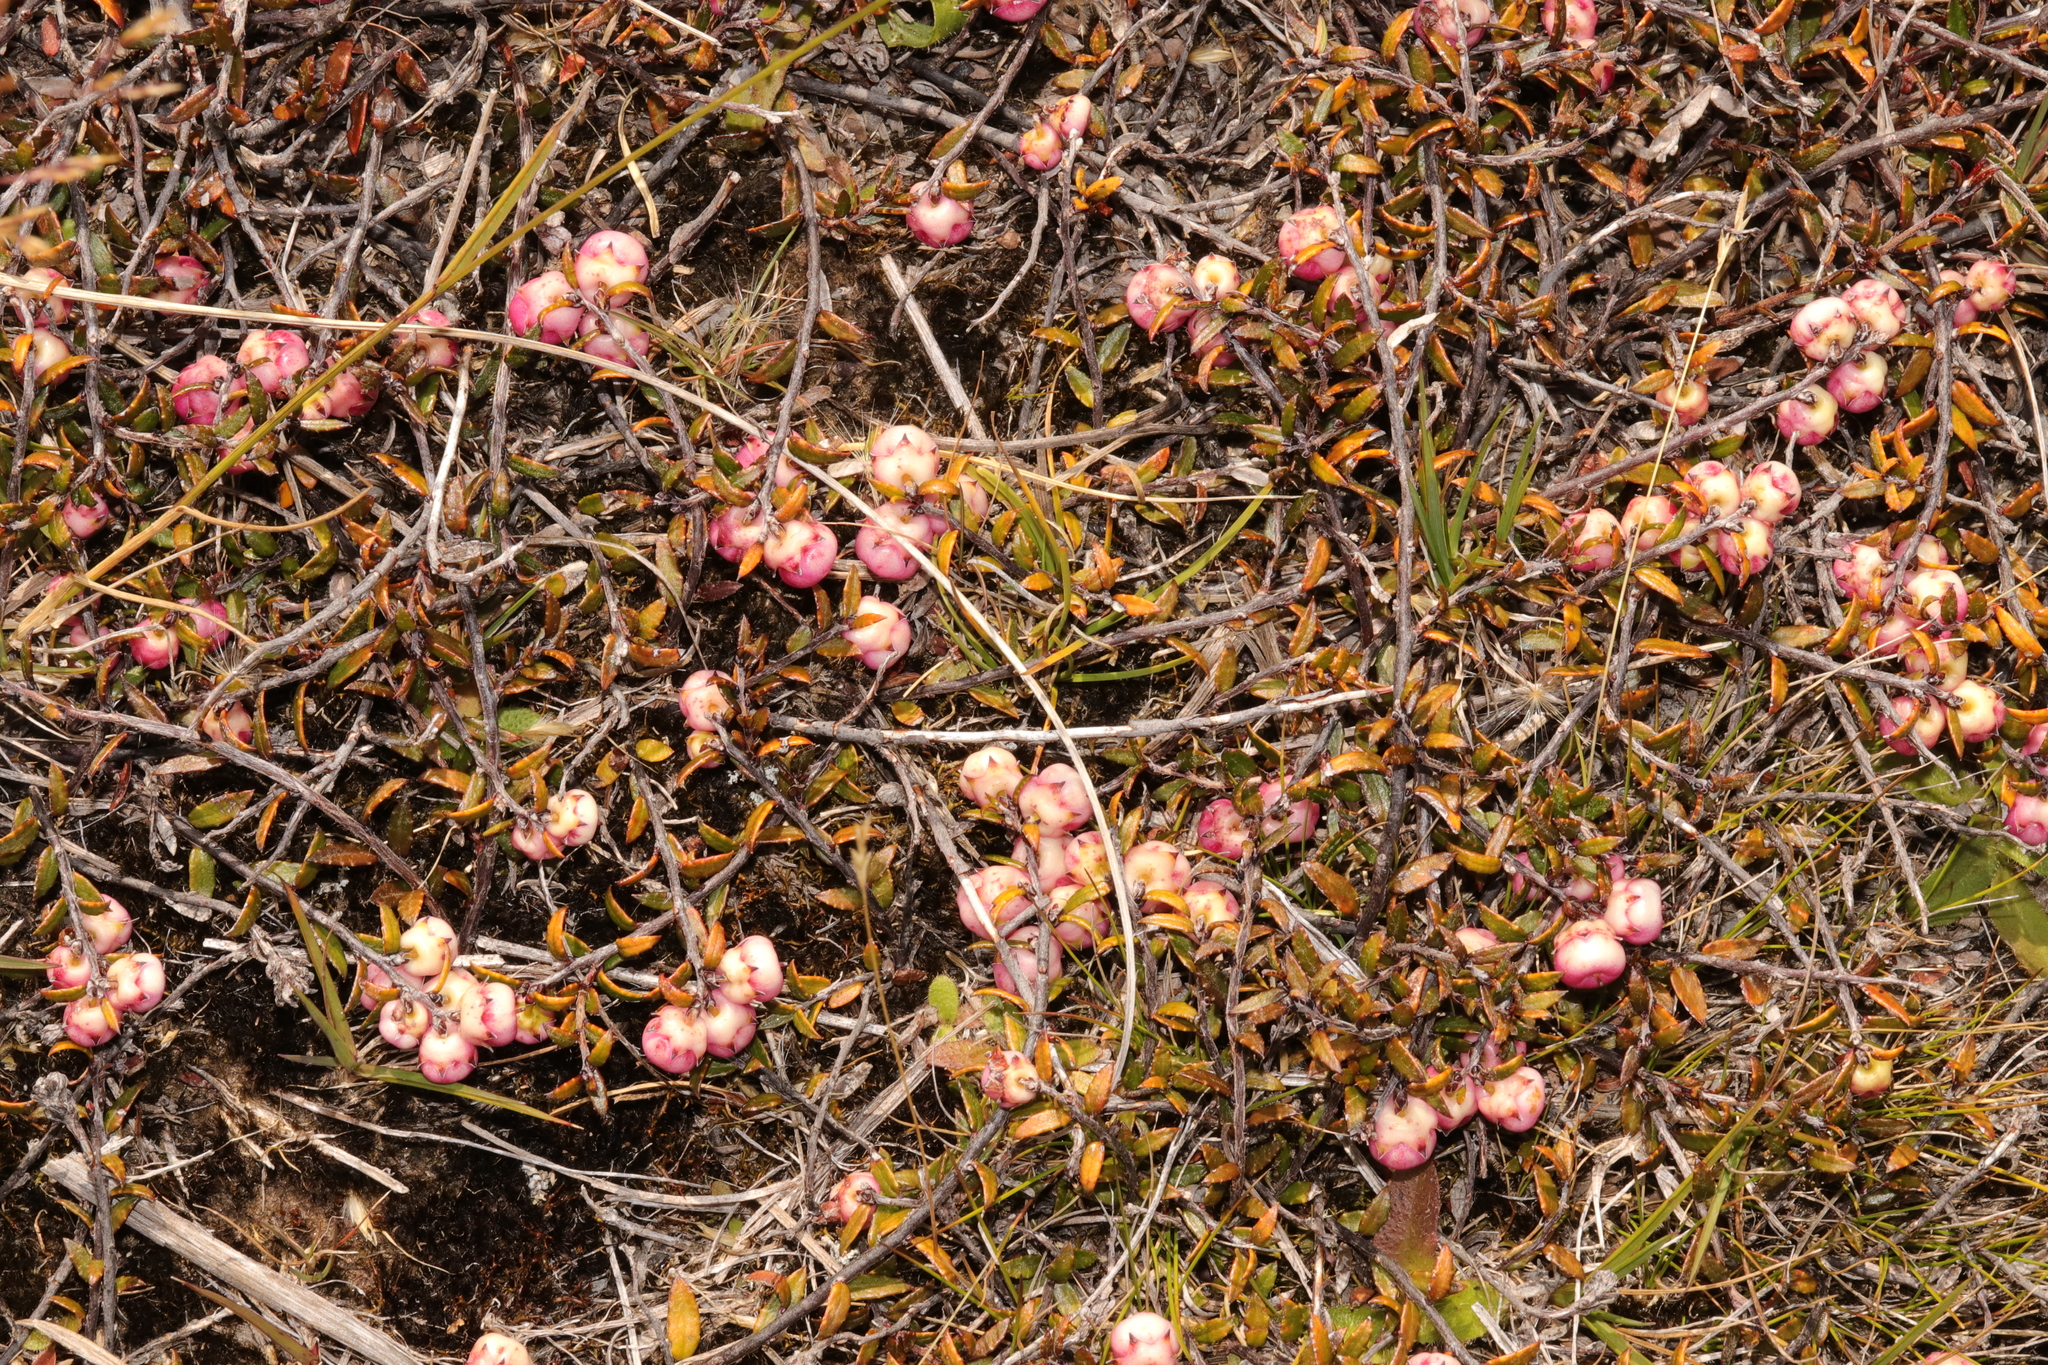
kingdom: Plantae
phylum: Tracheophyta
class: Magnoliopsida
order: Ericales
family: Ericaceae
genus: Gaultheria
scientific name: Gaultheria macrostigma
